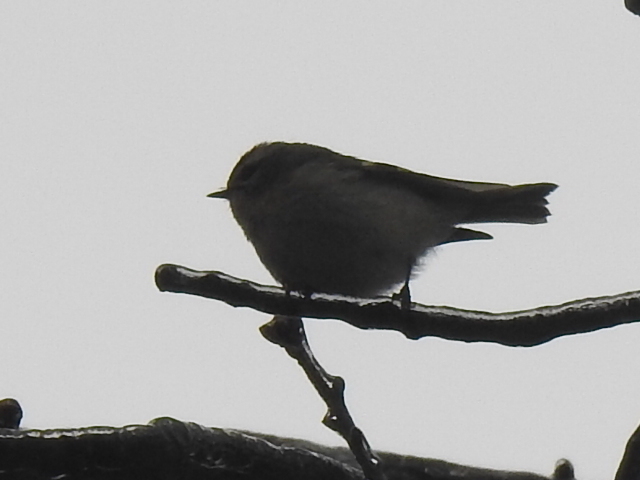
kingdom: Animalia
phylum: Chordata
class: Aves
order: Passeriformes
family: Regulidae
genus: Regulus
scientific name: Regulus satrapa
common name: Golden-crowned kinglet
